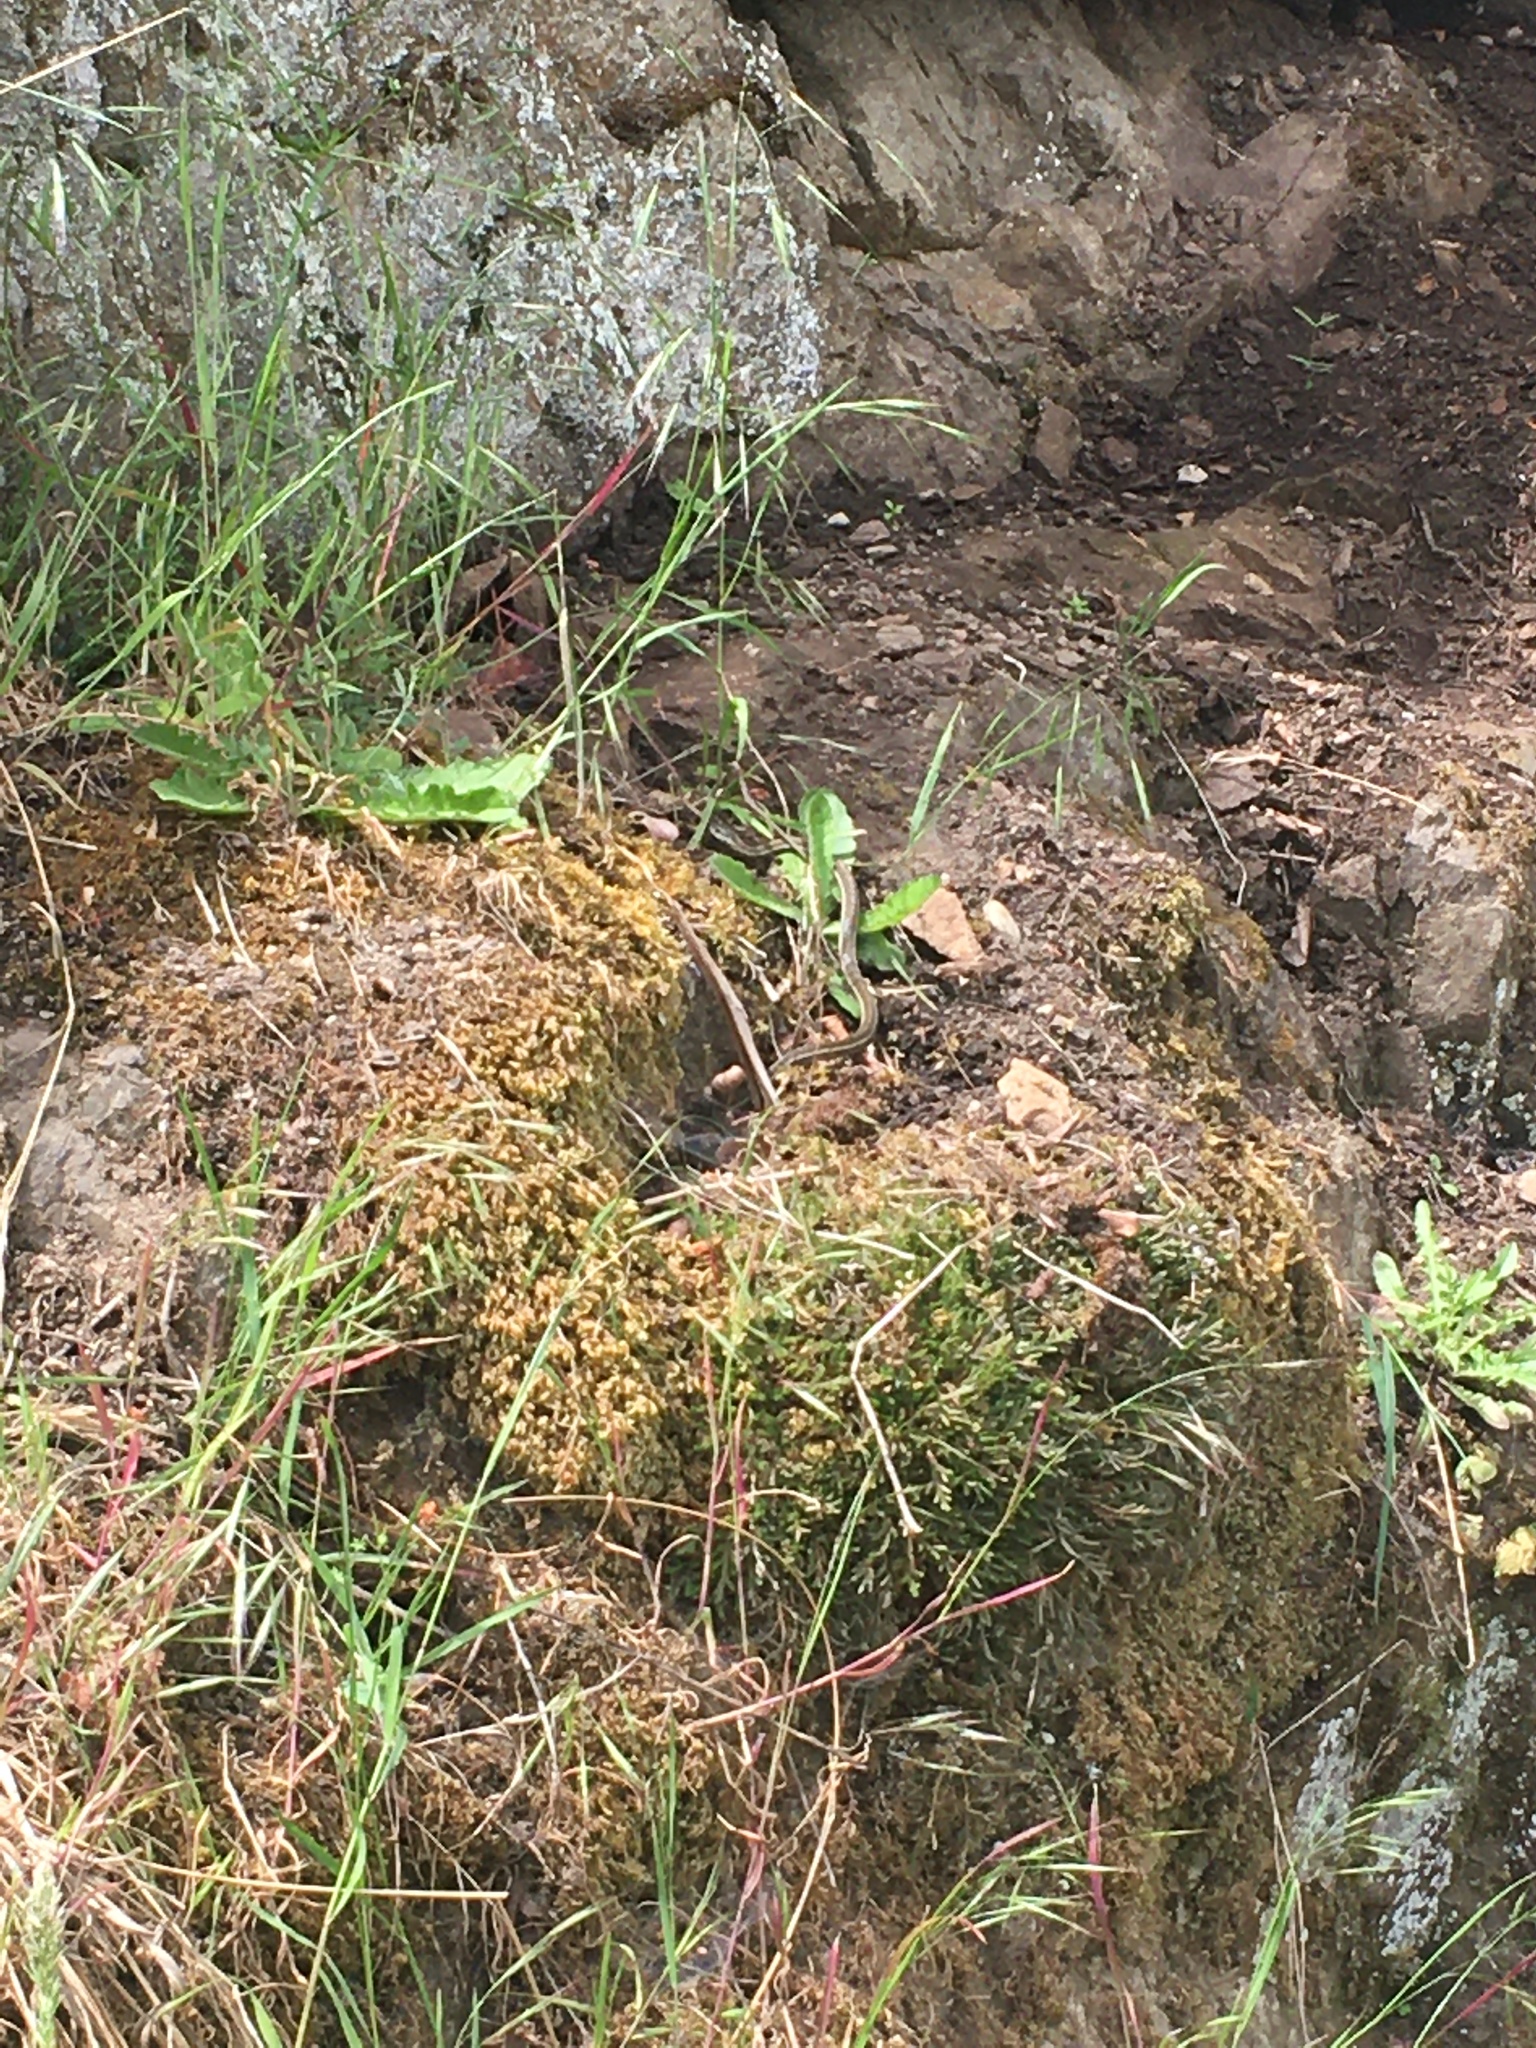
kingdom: Animalia
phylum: Chordata
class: Squamata
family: Colubridae
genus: Thamnophis
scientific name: Thamnophis ordinoides
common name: Northwestern garter snake
